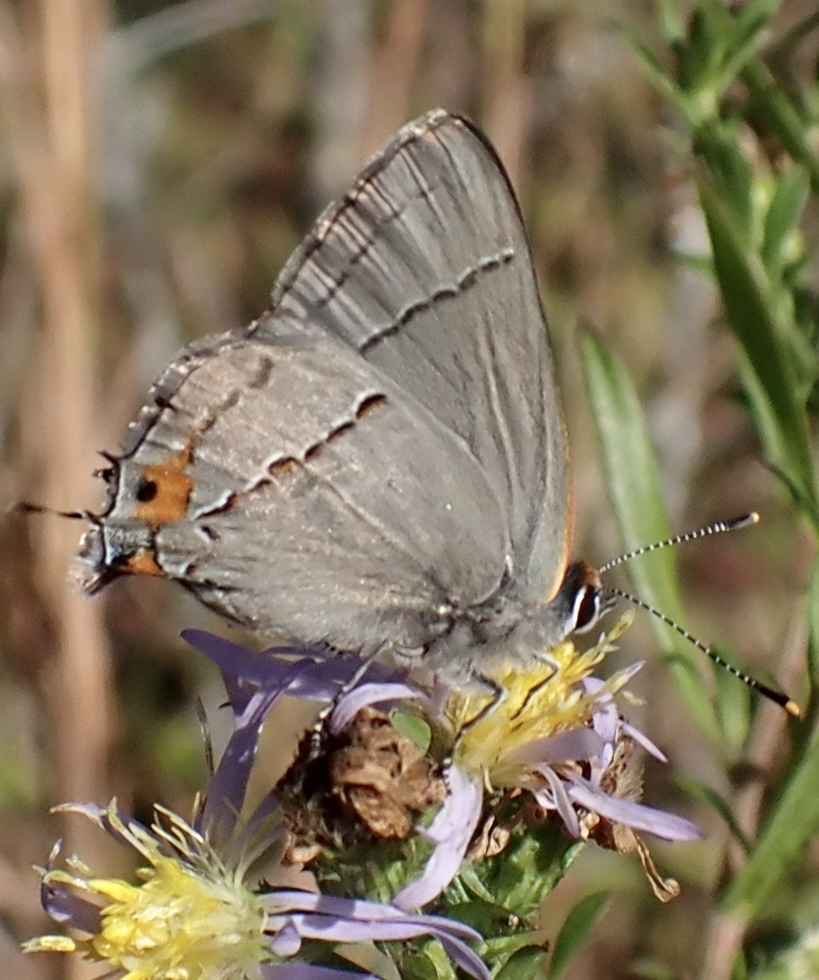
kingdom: Animalia
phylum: Arthropoda
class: Insecta
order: Lepidoptera
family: Lycaenidae
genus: Strymon
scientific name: Strymon melinus
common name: Gray hairstreak
